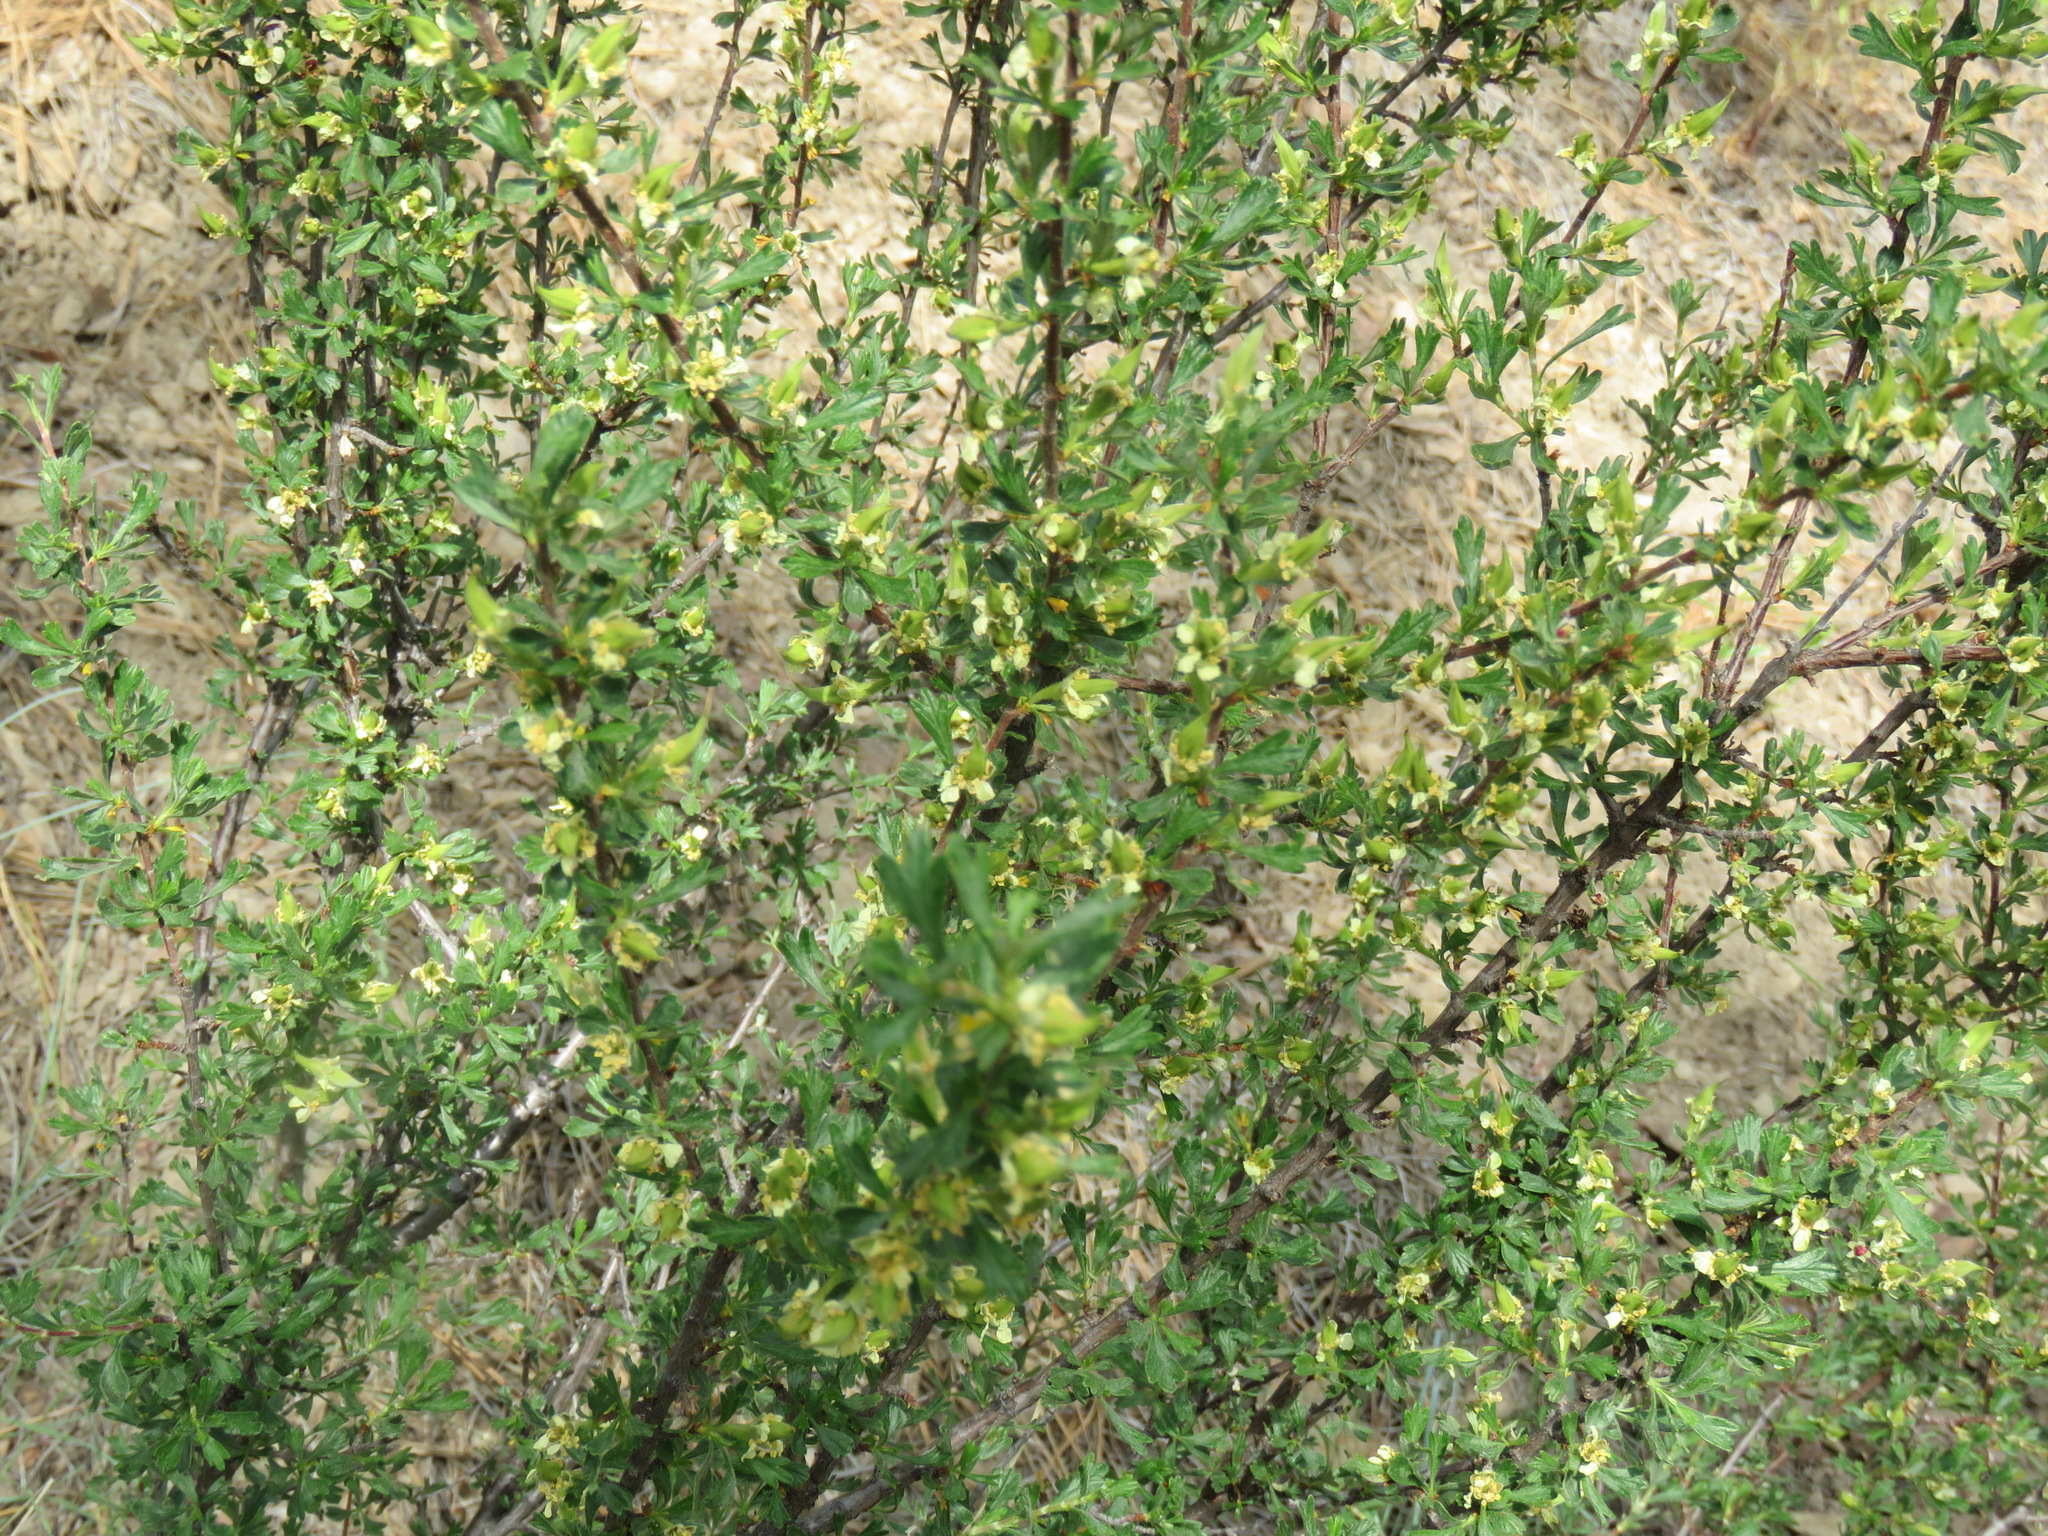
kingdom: Plantae
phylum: Tracheophyta
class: Magnoliopsida
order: Rosales
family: Rosaceae
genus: Purshia
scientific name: Purshia tridentata
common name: Antelope bitterbrush
